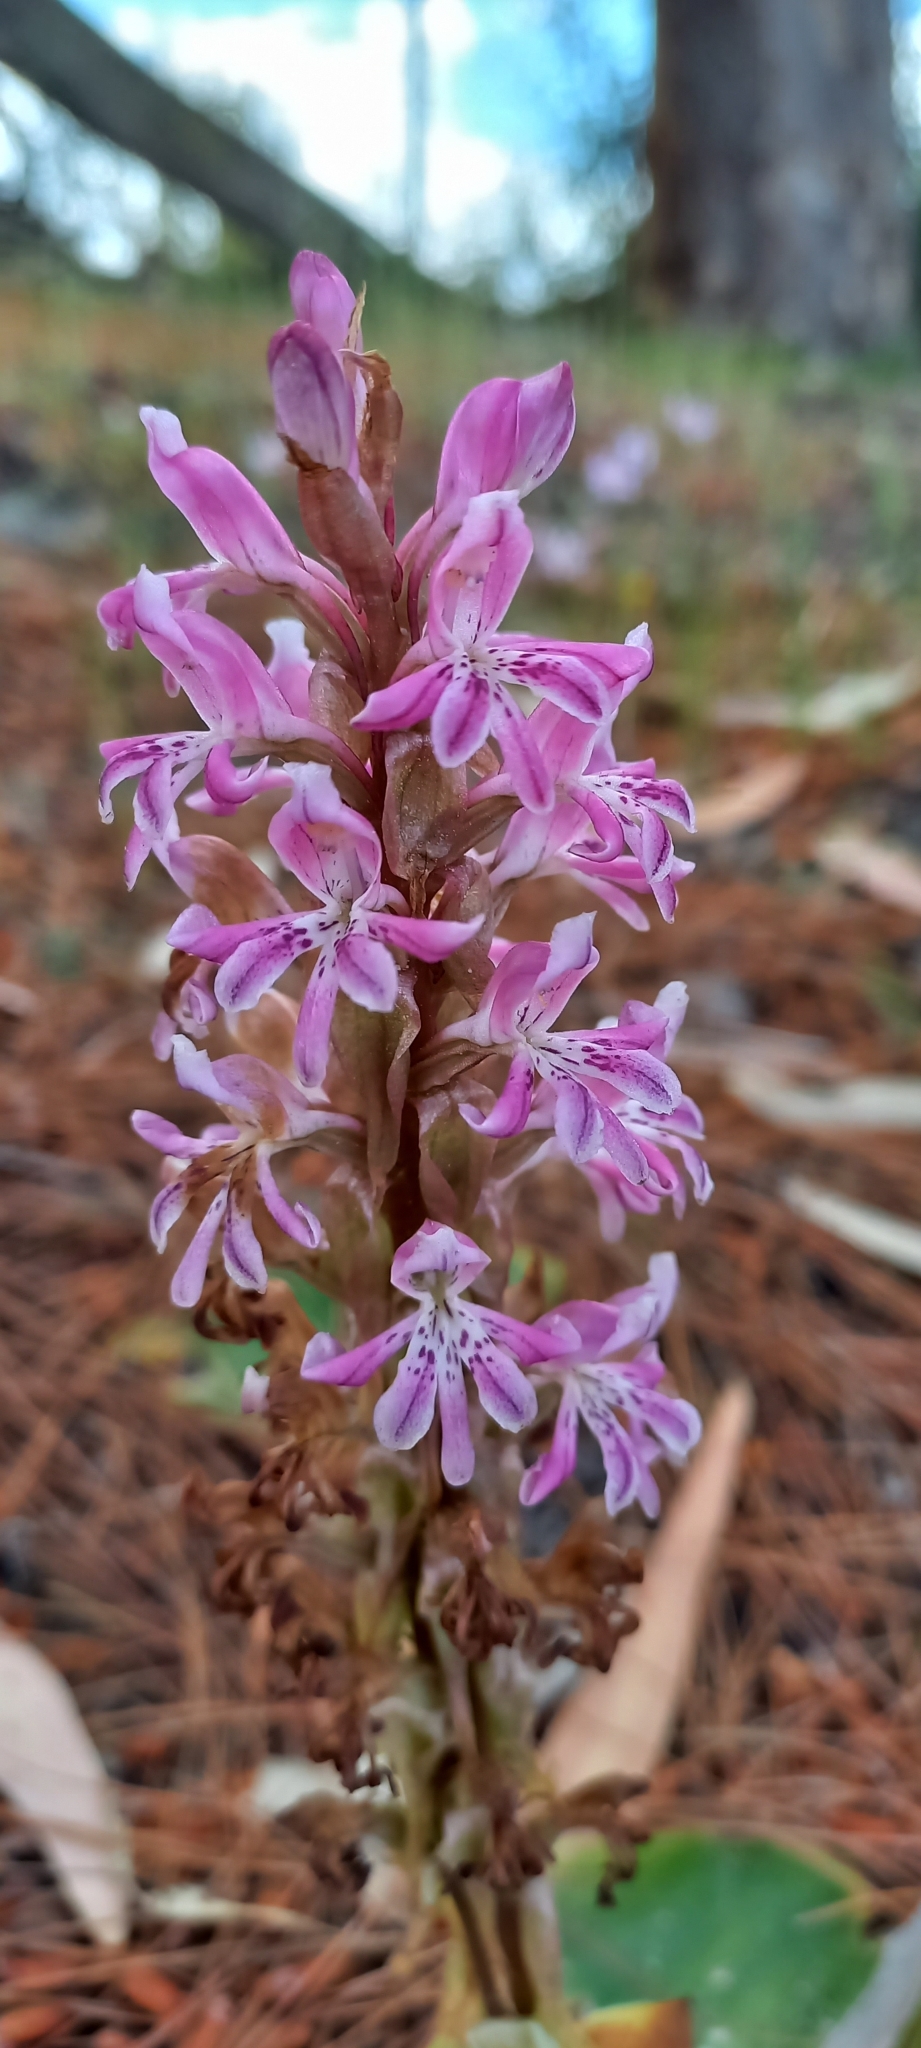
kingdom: Plantae
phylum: Tracheophyta
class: Liliopsida
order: Asparagales
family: Orchidaceae
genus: Satyrium
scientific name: Satyrium erectum
